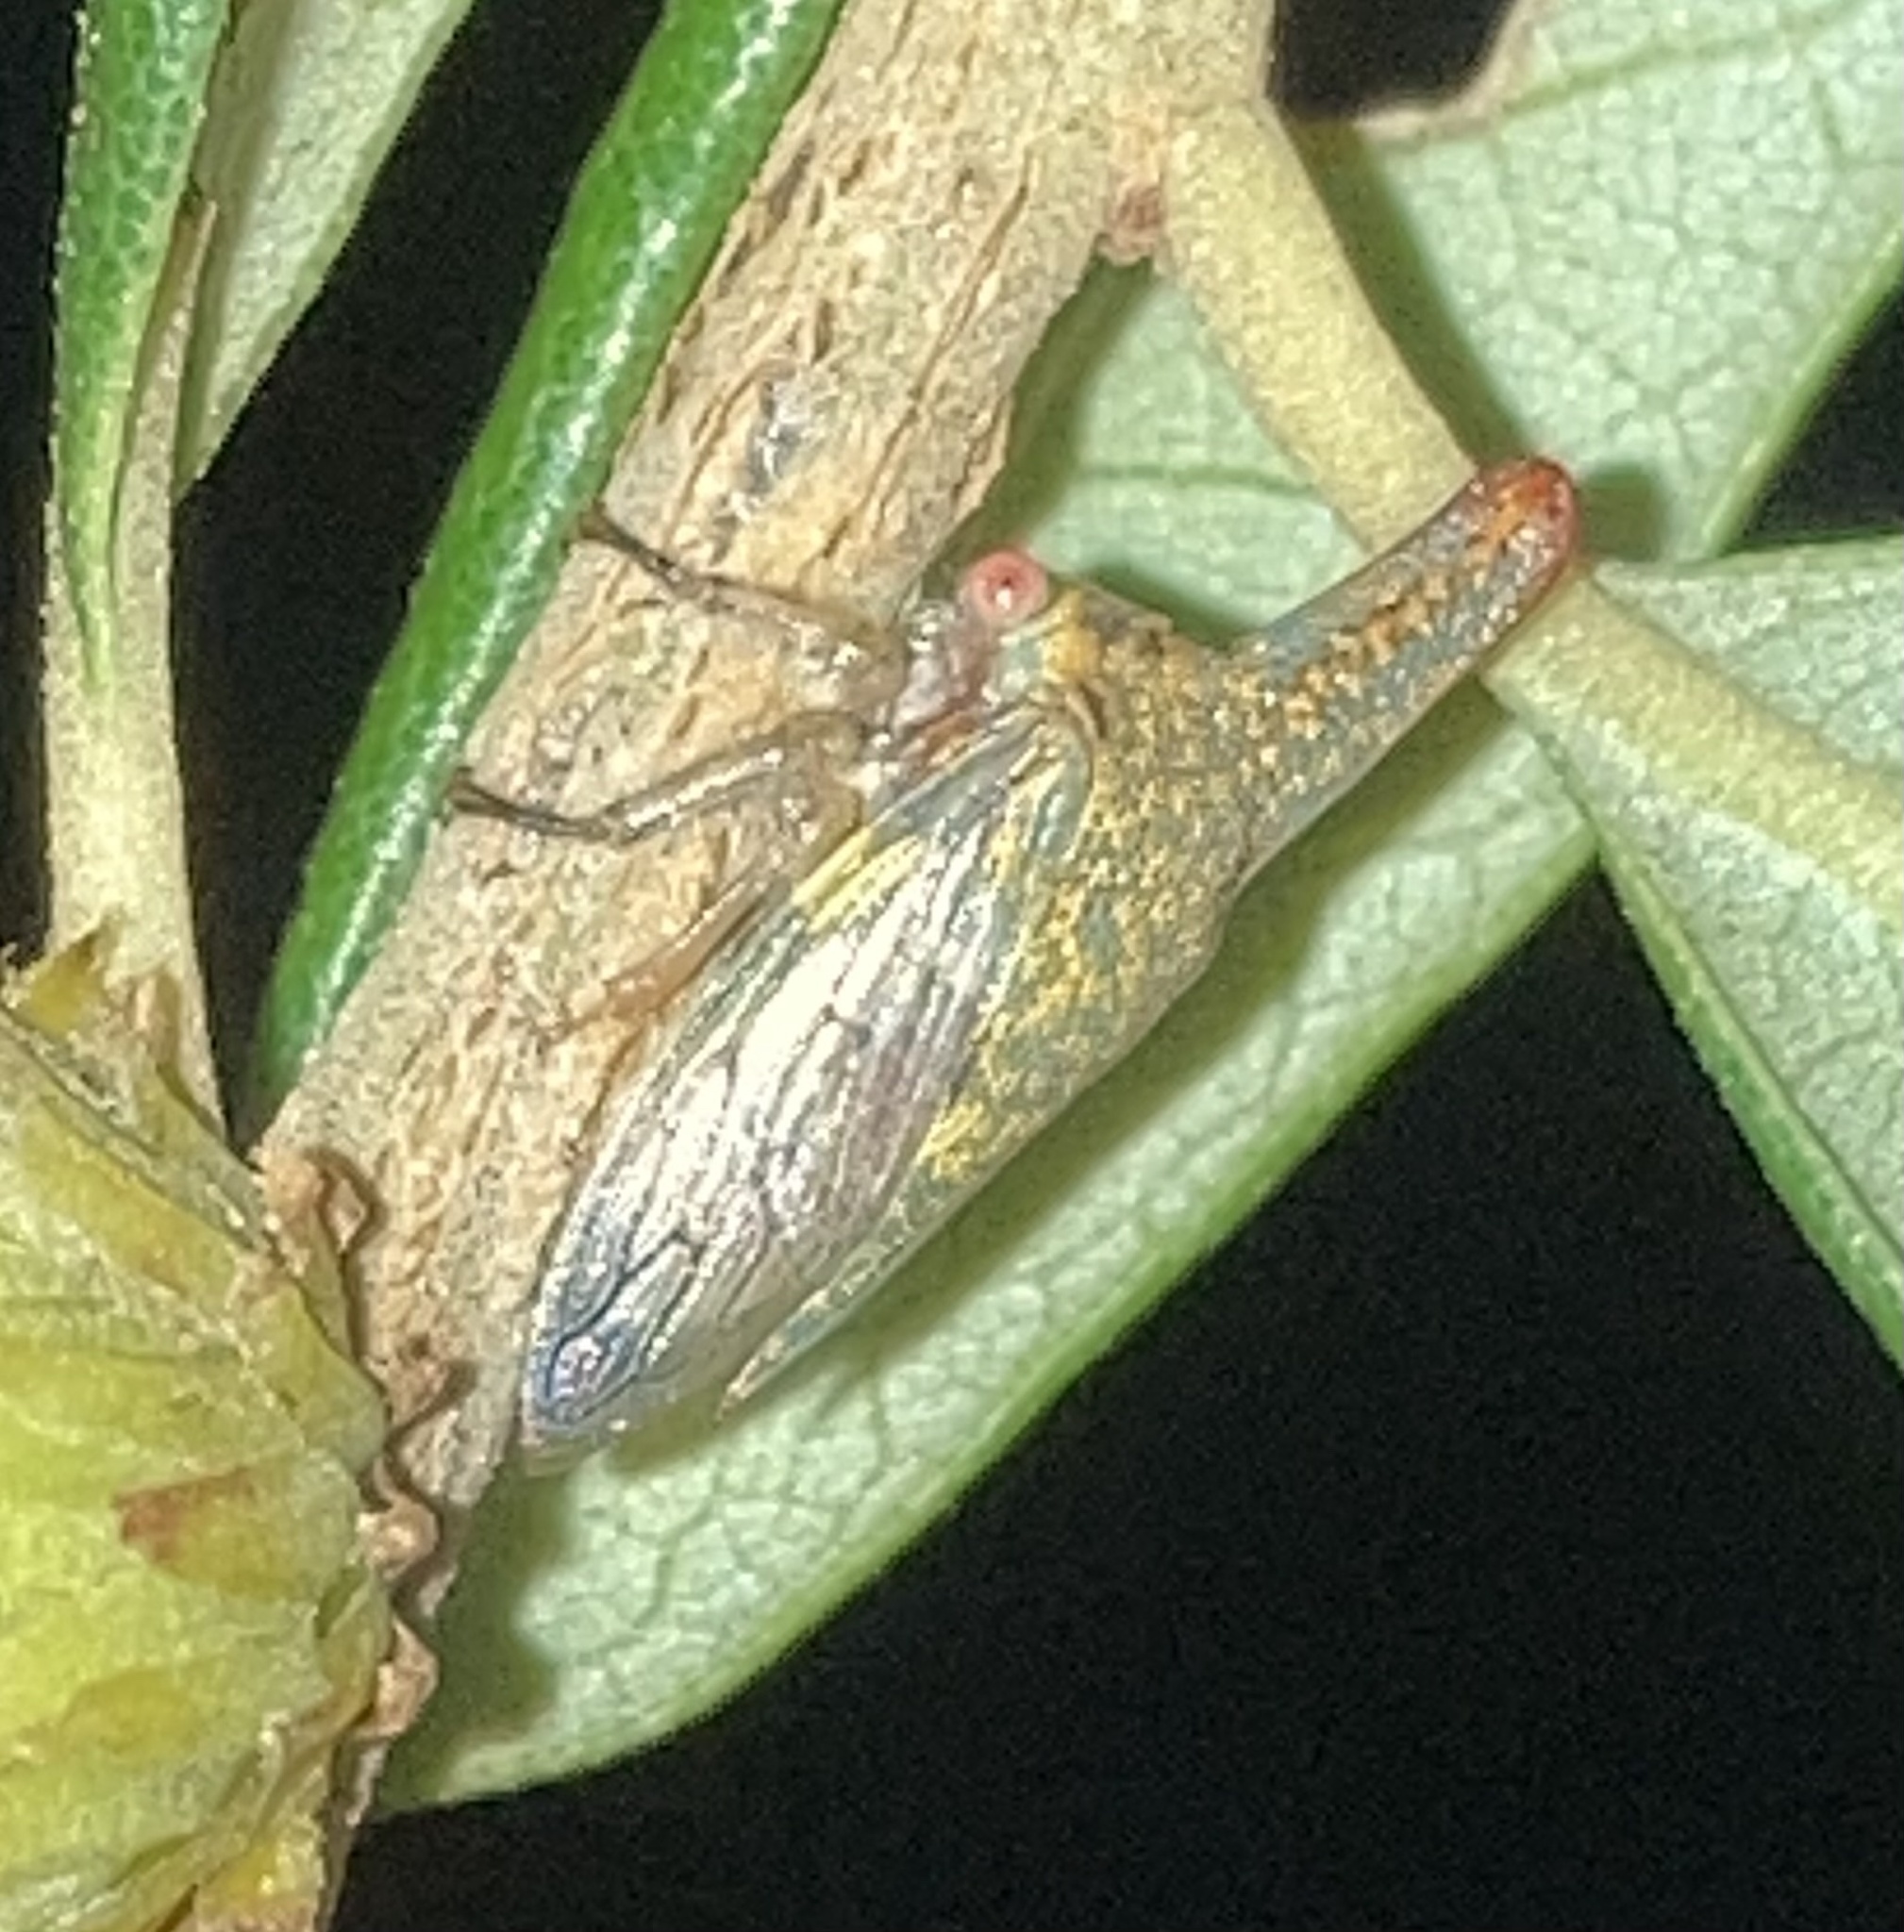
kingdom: Animalia
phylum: Arthropoda
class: Insecta
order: Hemiptera
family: Membracidae
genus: Platycotis
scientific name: Platycotis vittatus
